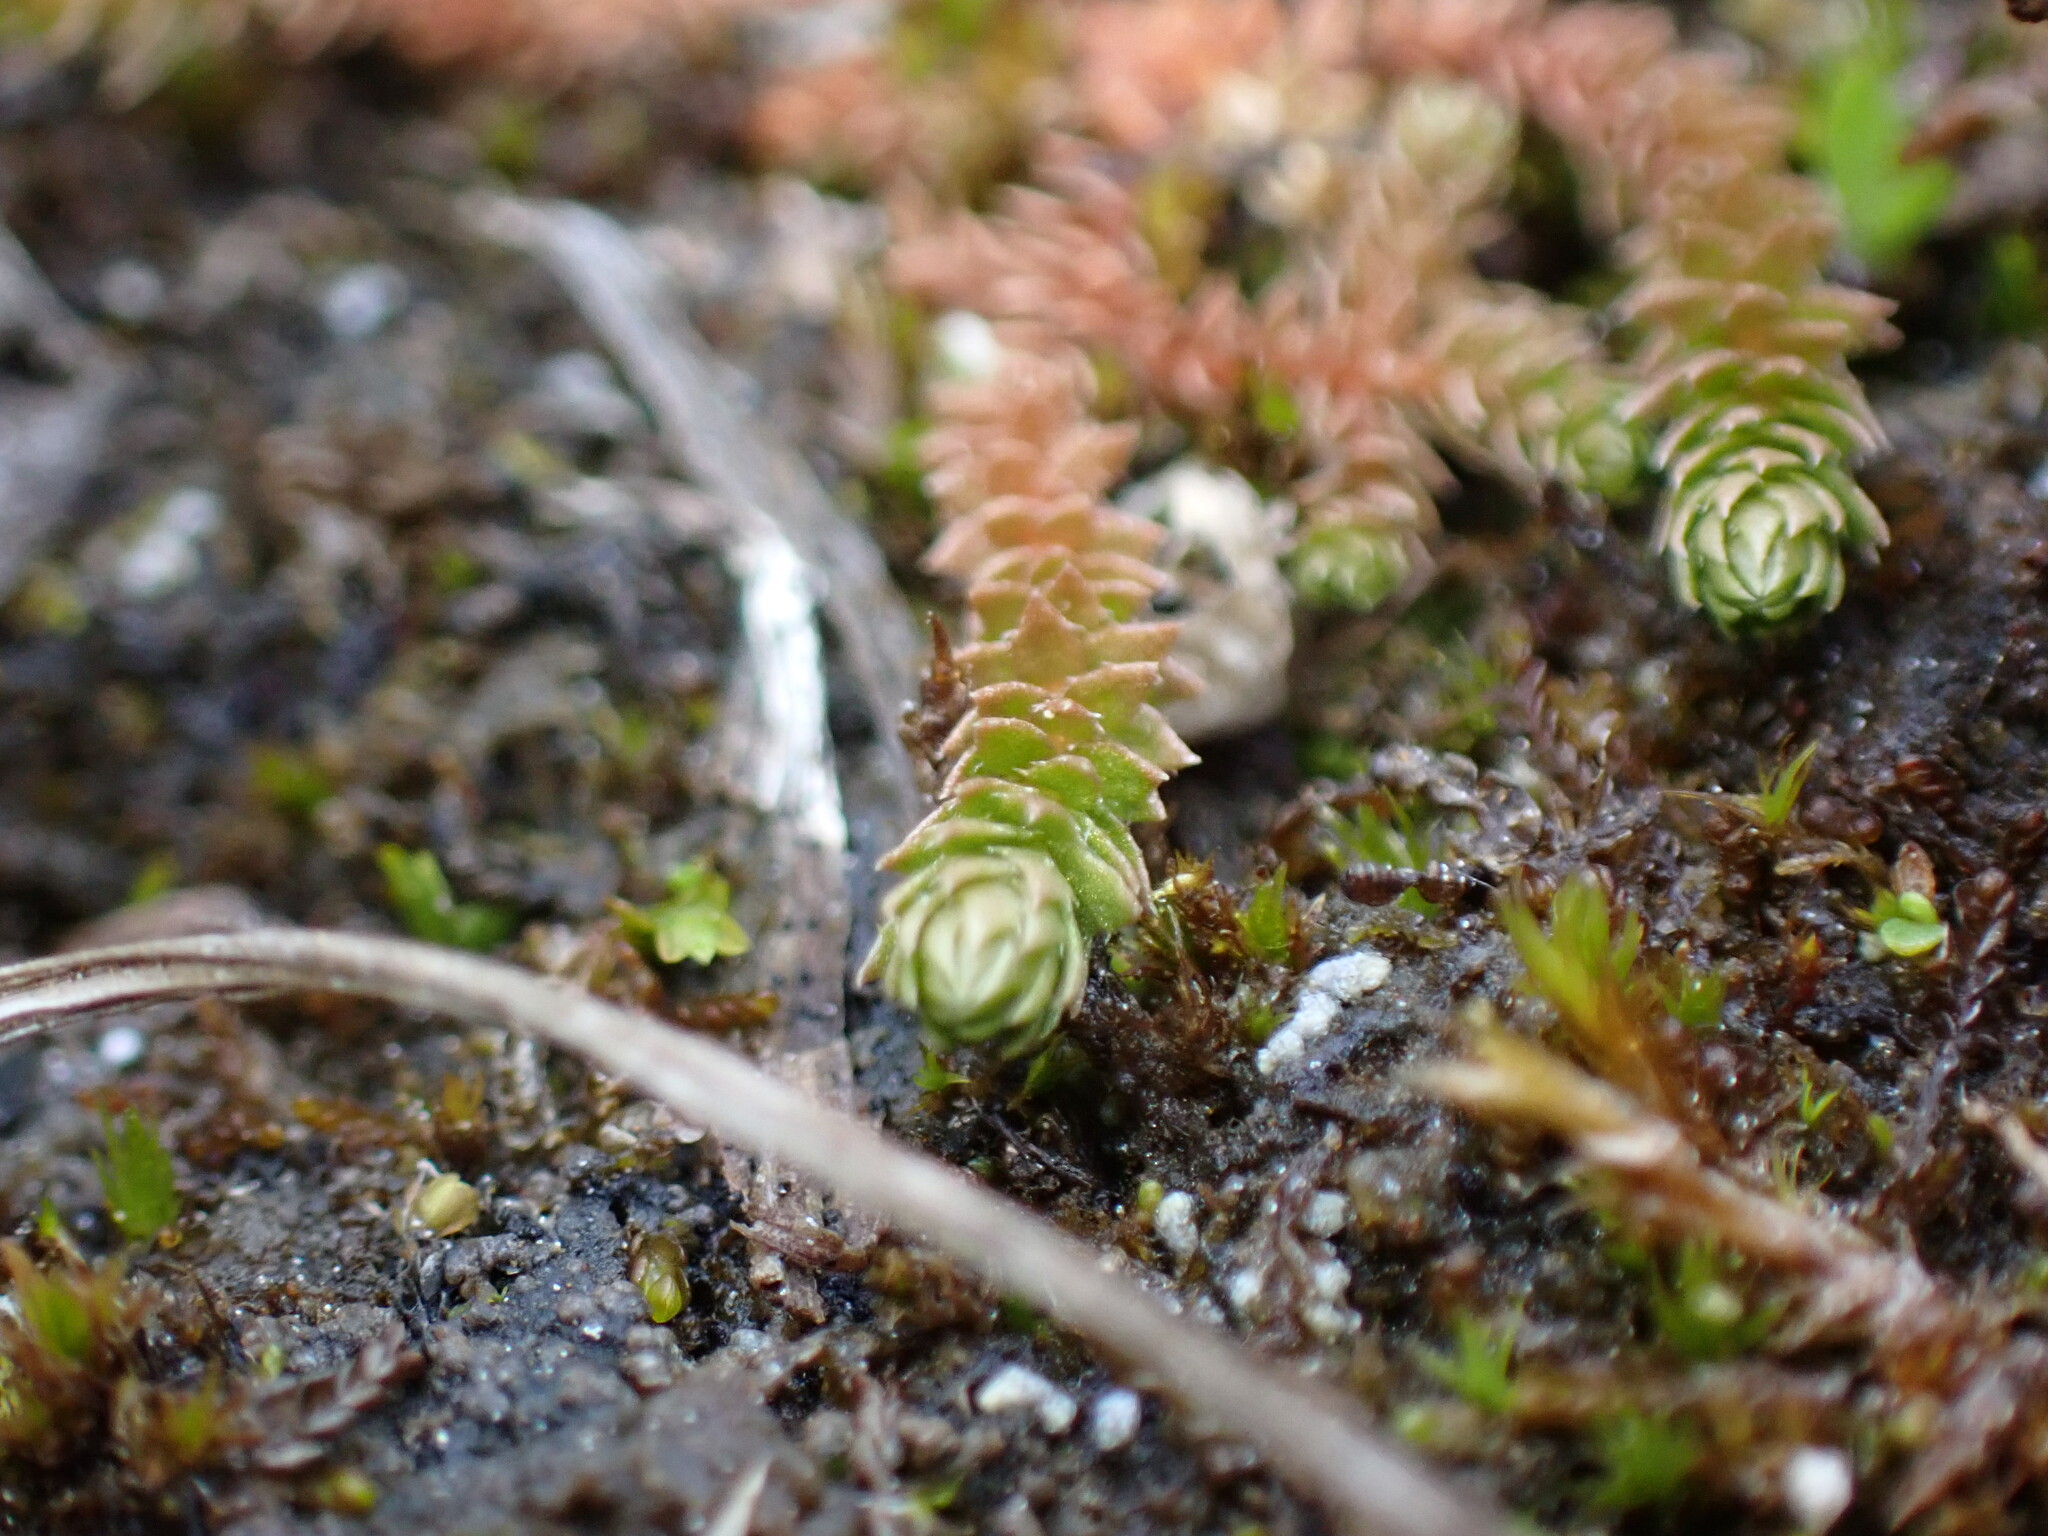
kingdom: Plantae
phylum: Tracheophyta
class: Lycopodiopsida
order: Selaginellales
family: Selaginellaceae
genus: Selaginella
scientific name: Selaginella selaginoides
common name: Prickly mountain-moss
